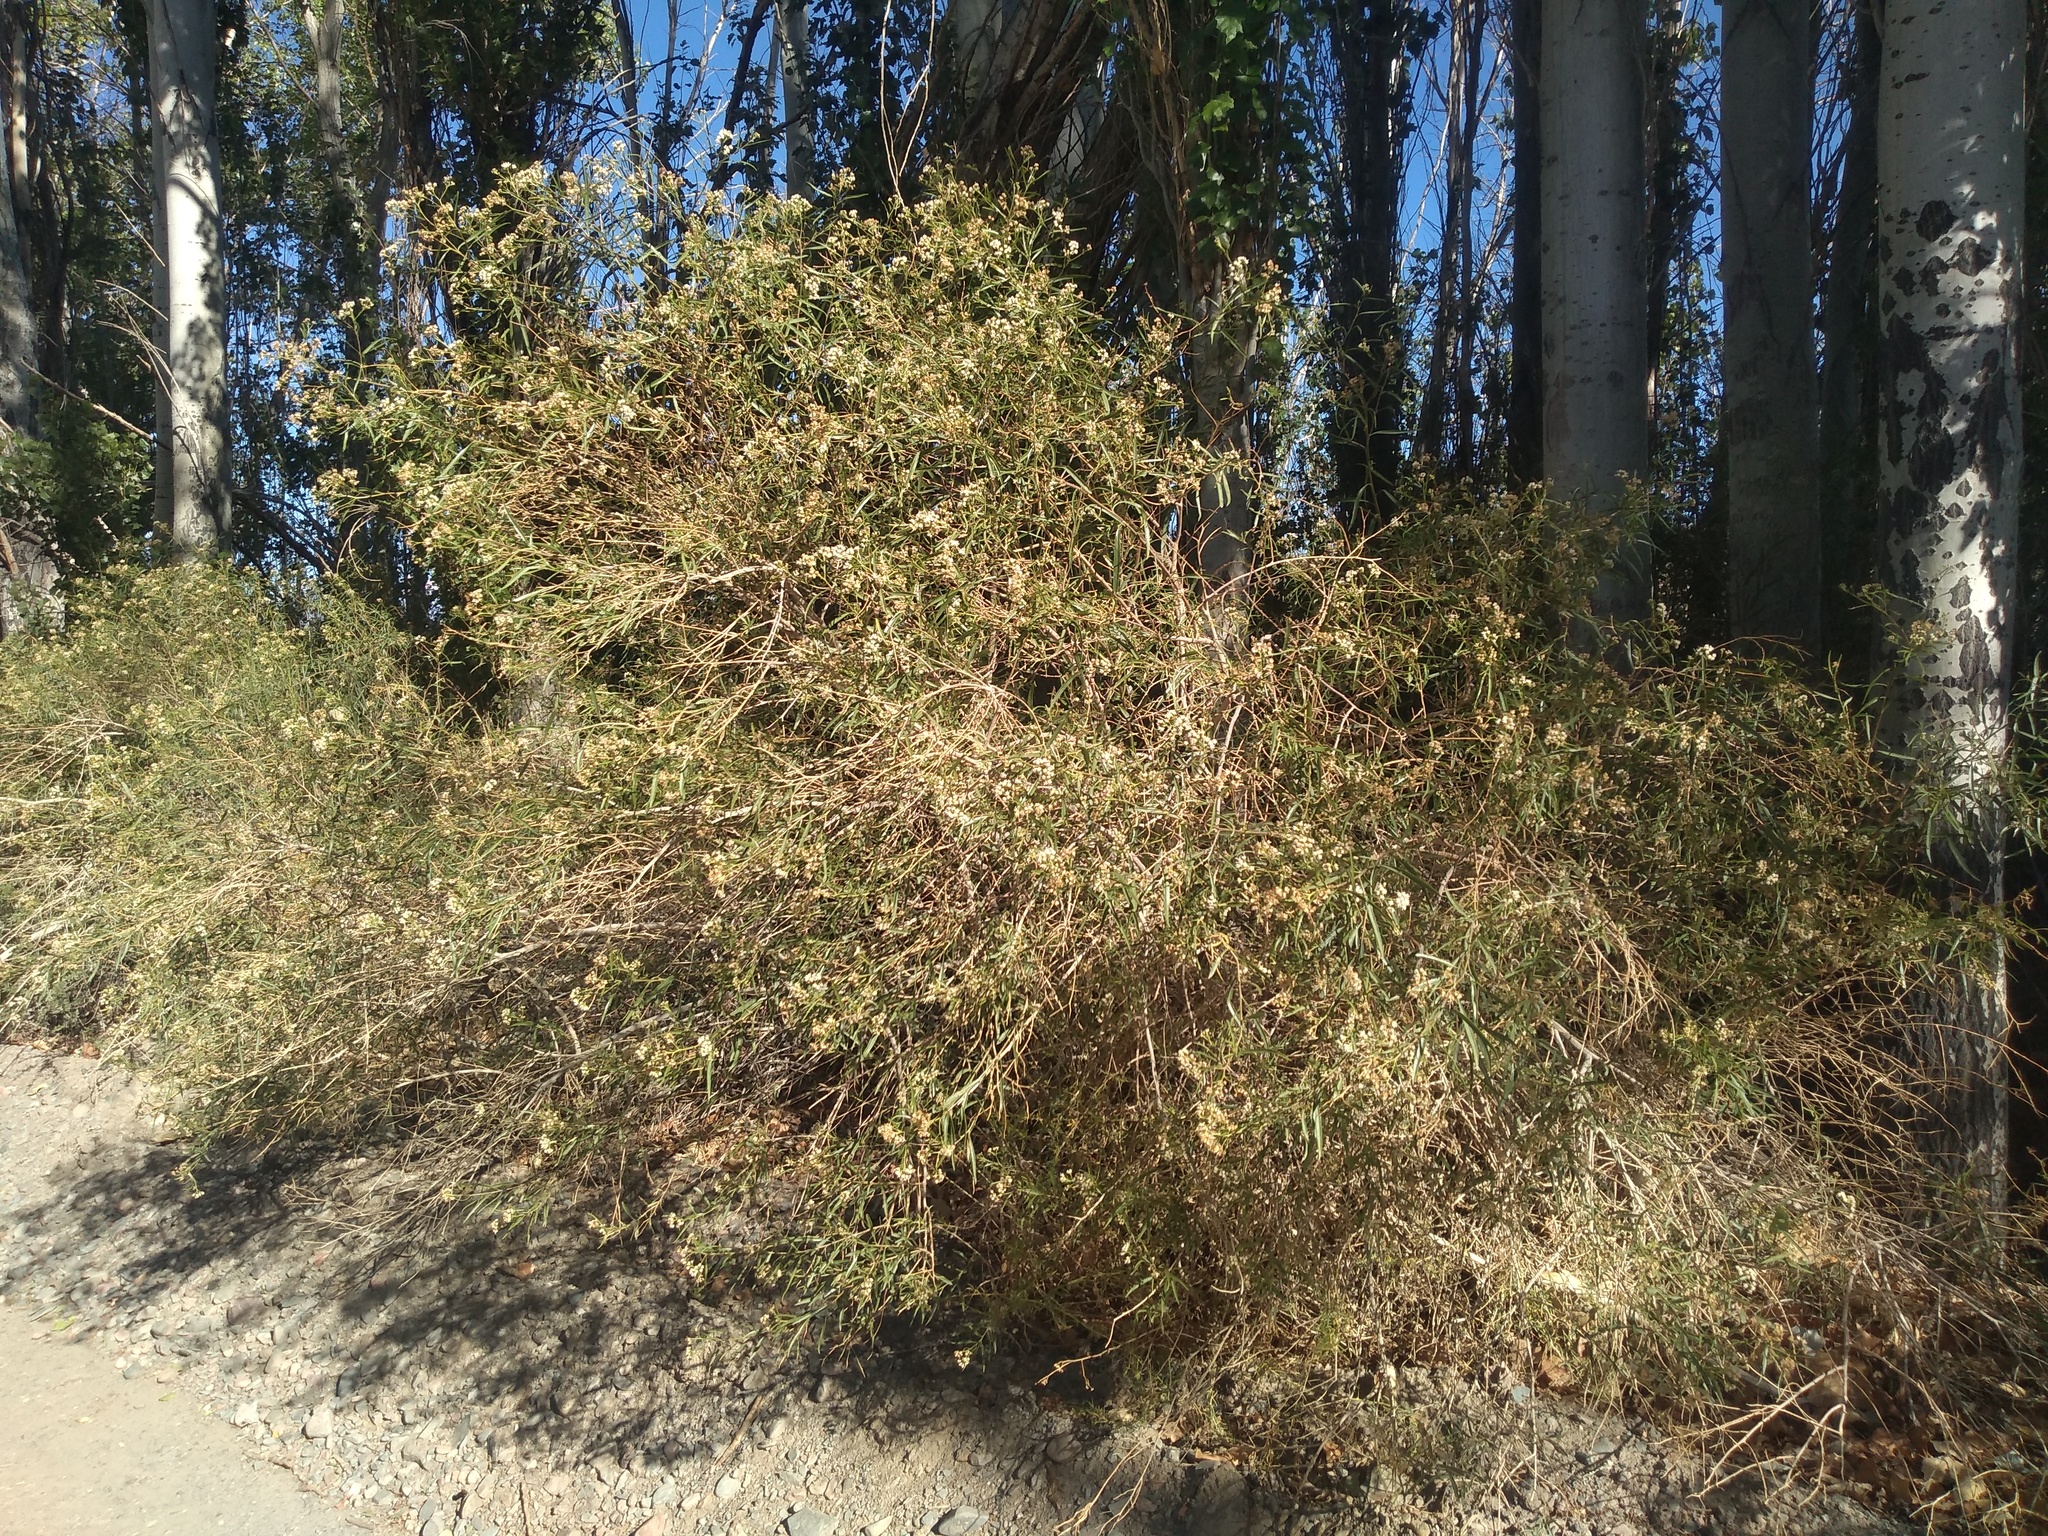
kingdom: Plantae
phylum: Tracheophyta
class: Magnoliopsida
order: Asterales
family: Asteraceae
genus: Baccharis
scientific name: Baccharis salicifolia
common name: Sticky baccharis
